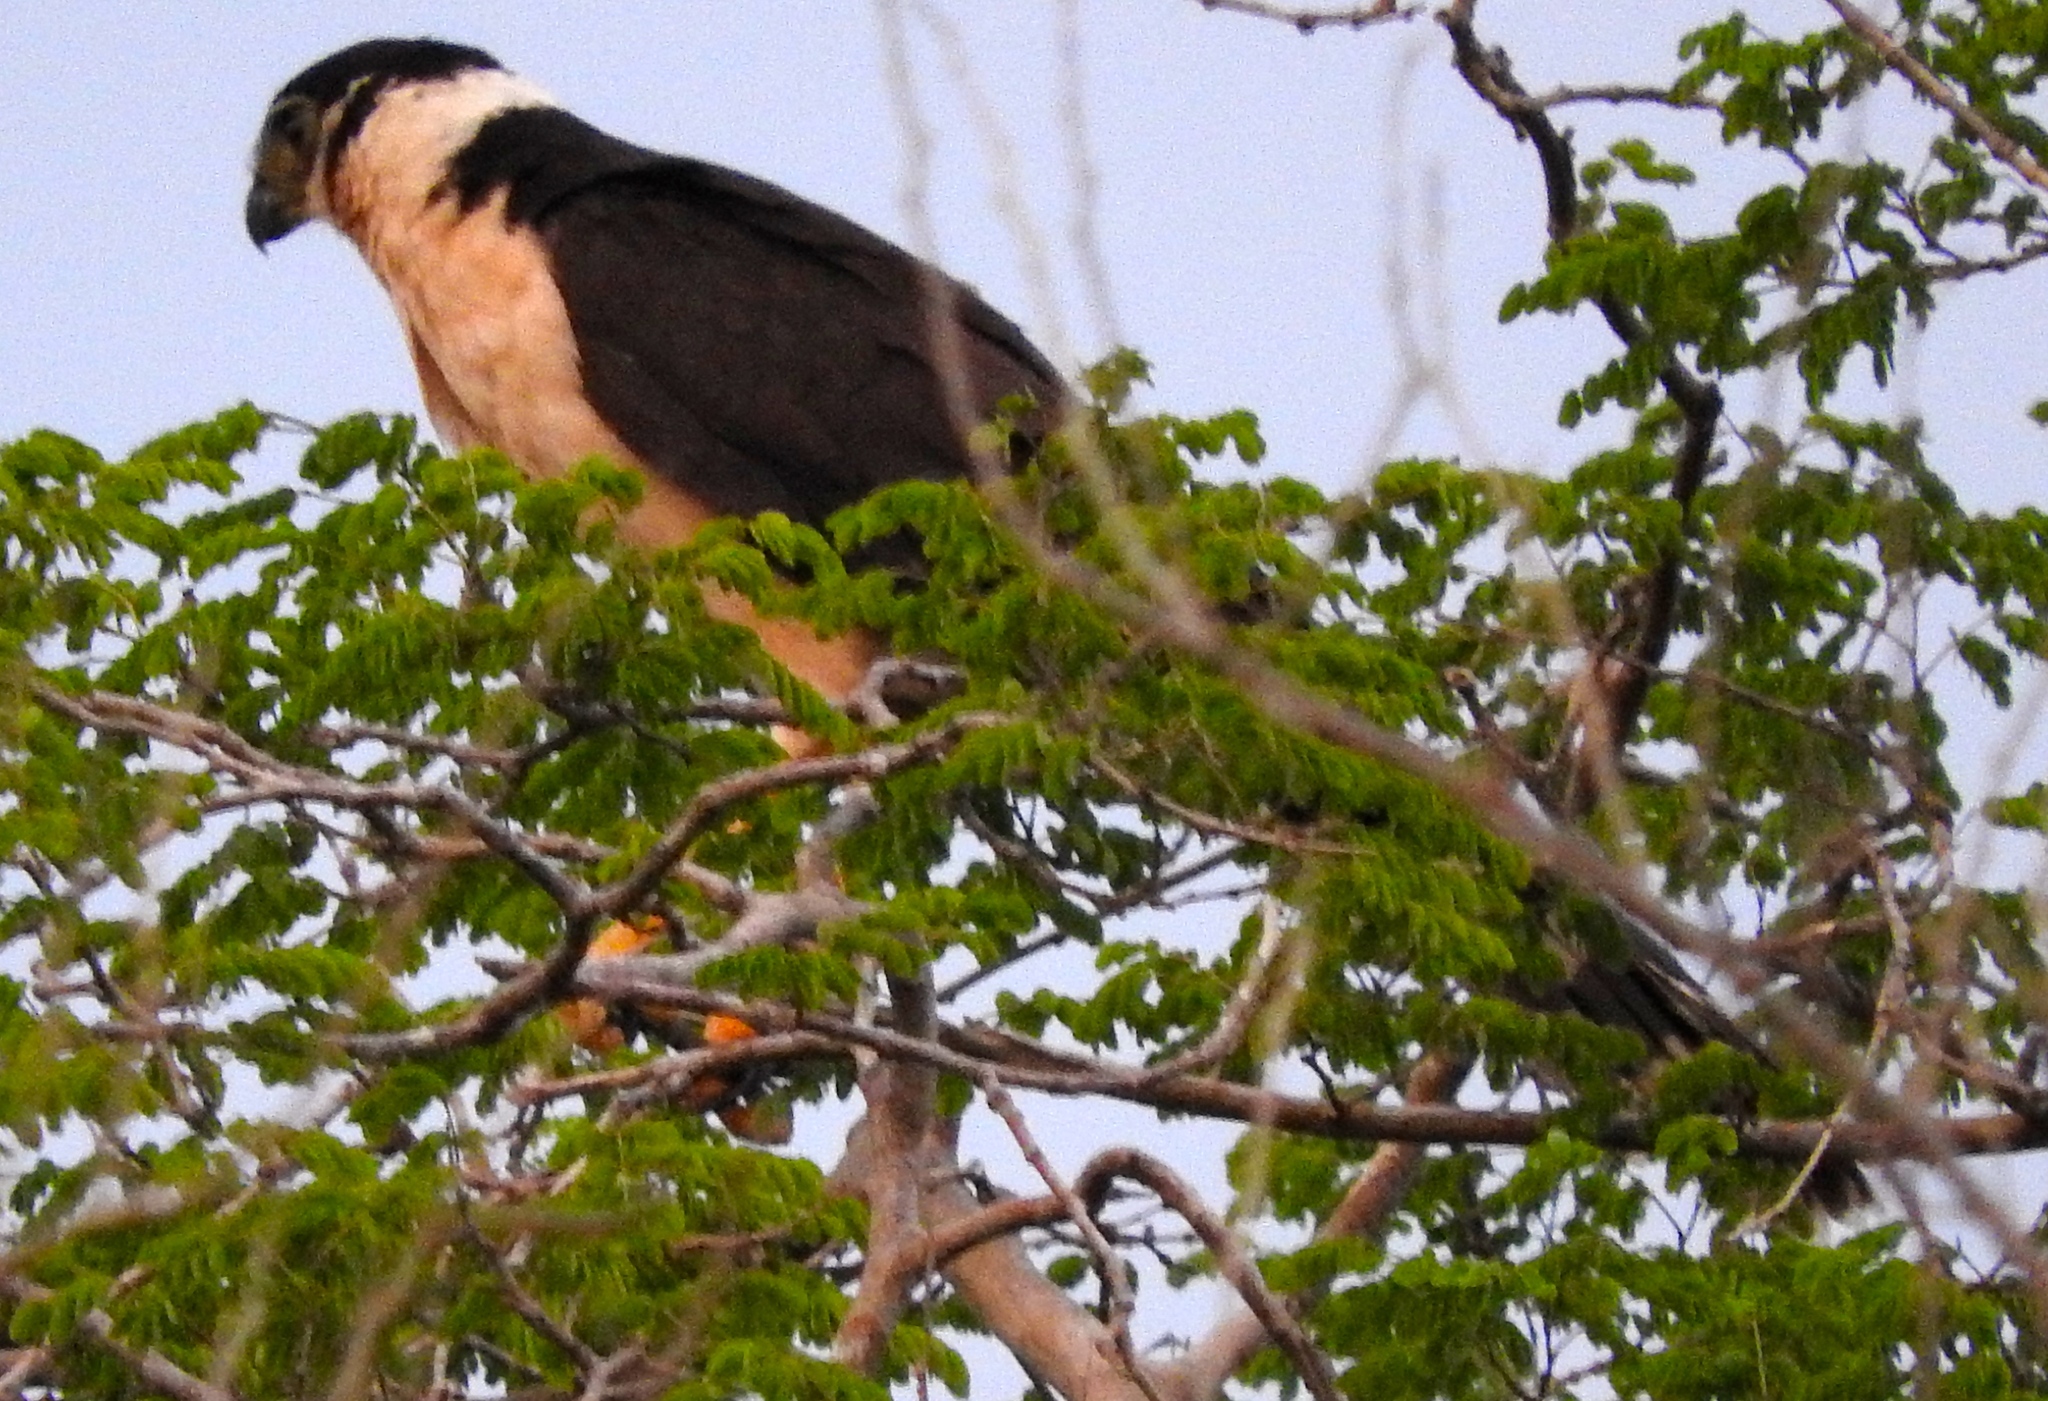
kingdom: Animalia
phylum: Chordata
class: Aves
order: Falconiformes
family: Falconidae
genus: Micrastur
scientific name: Micrastur semitorquatus
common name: Collared forest-falcon
